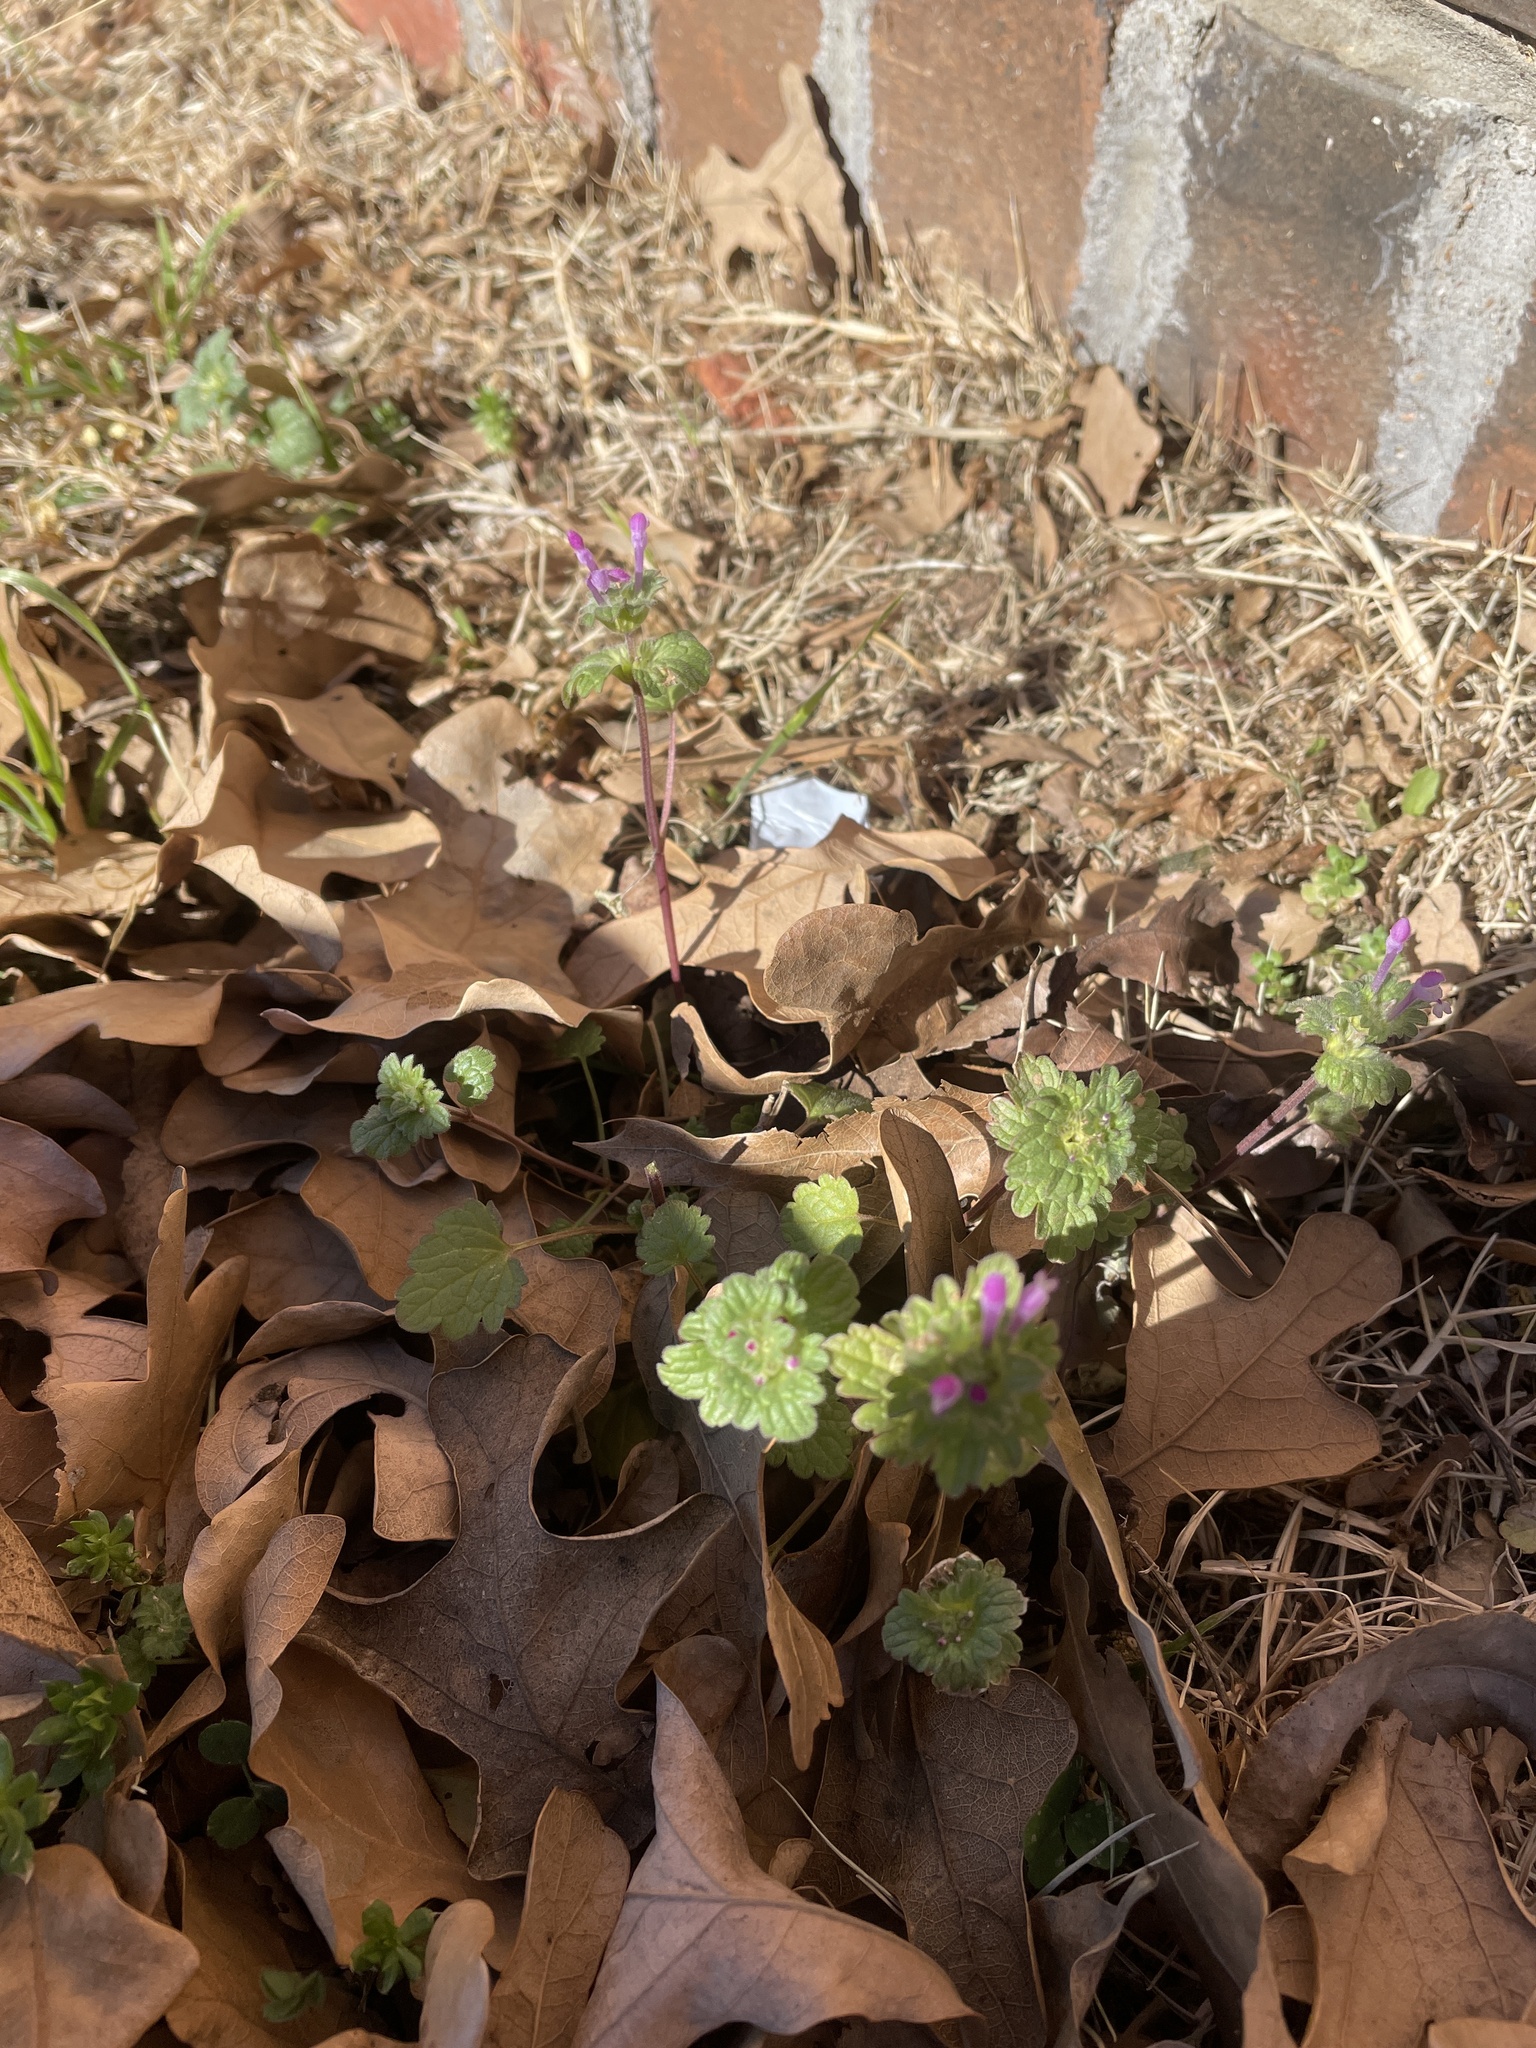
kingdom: Plantae
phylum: Tracheophyta
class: Magnoliopsida
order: Lamiales
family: Lamiaceae
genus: Lamium
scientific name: Lamium amplexicaule
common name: Henbit dead-nettle
